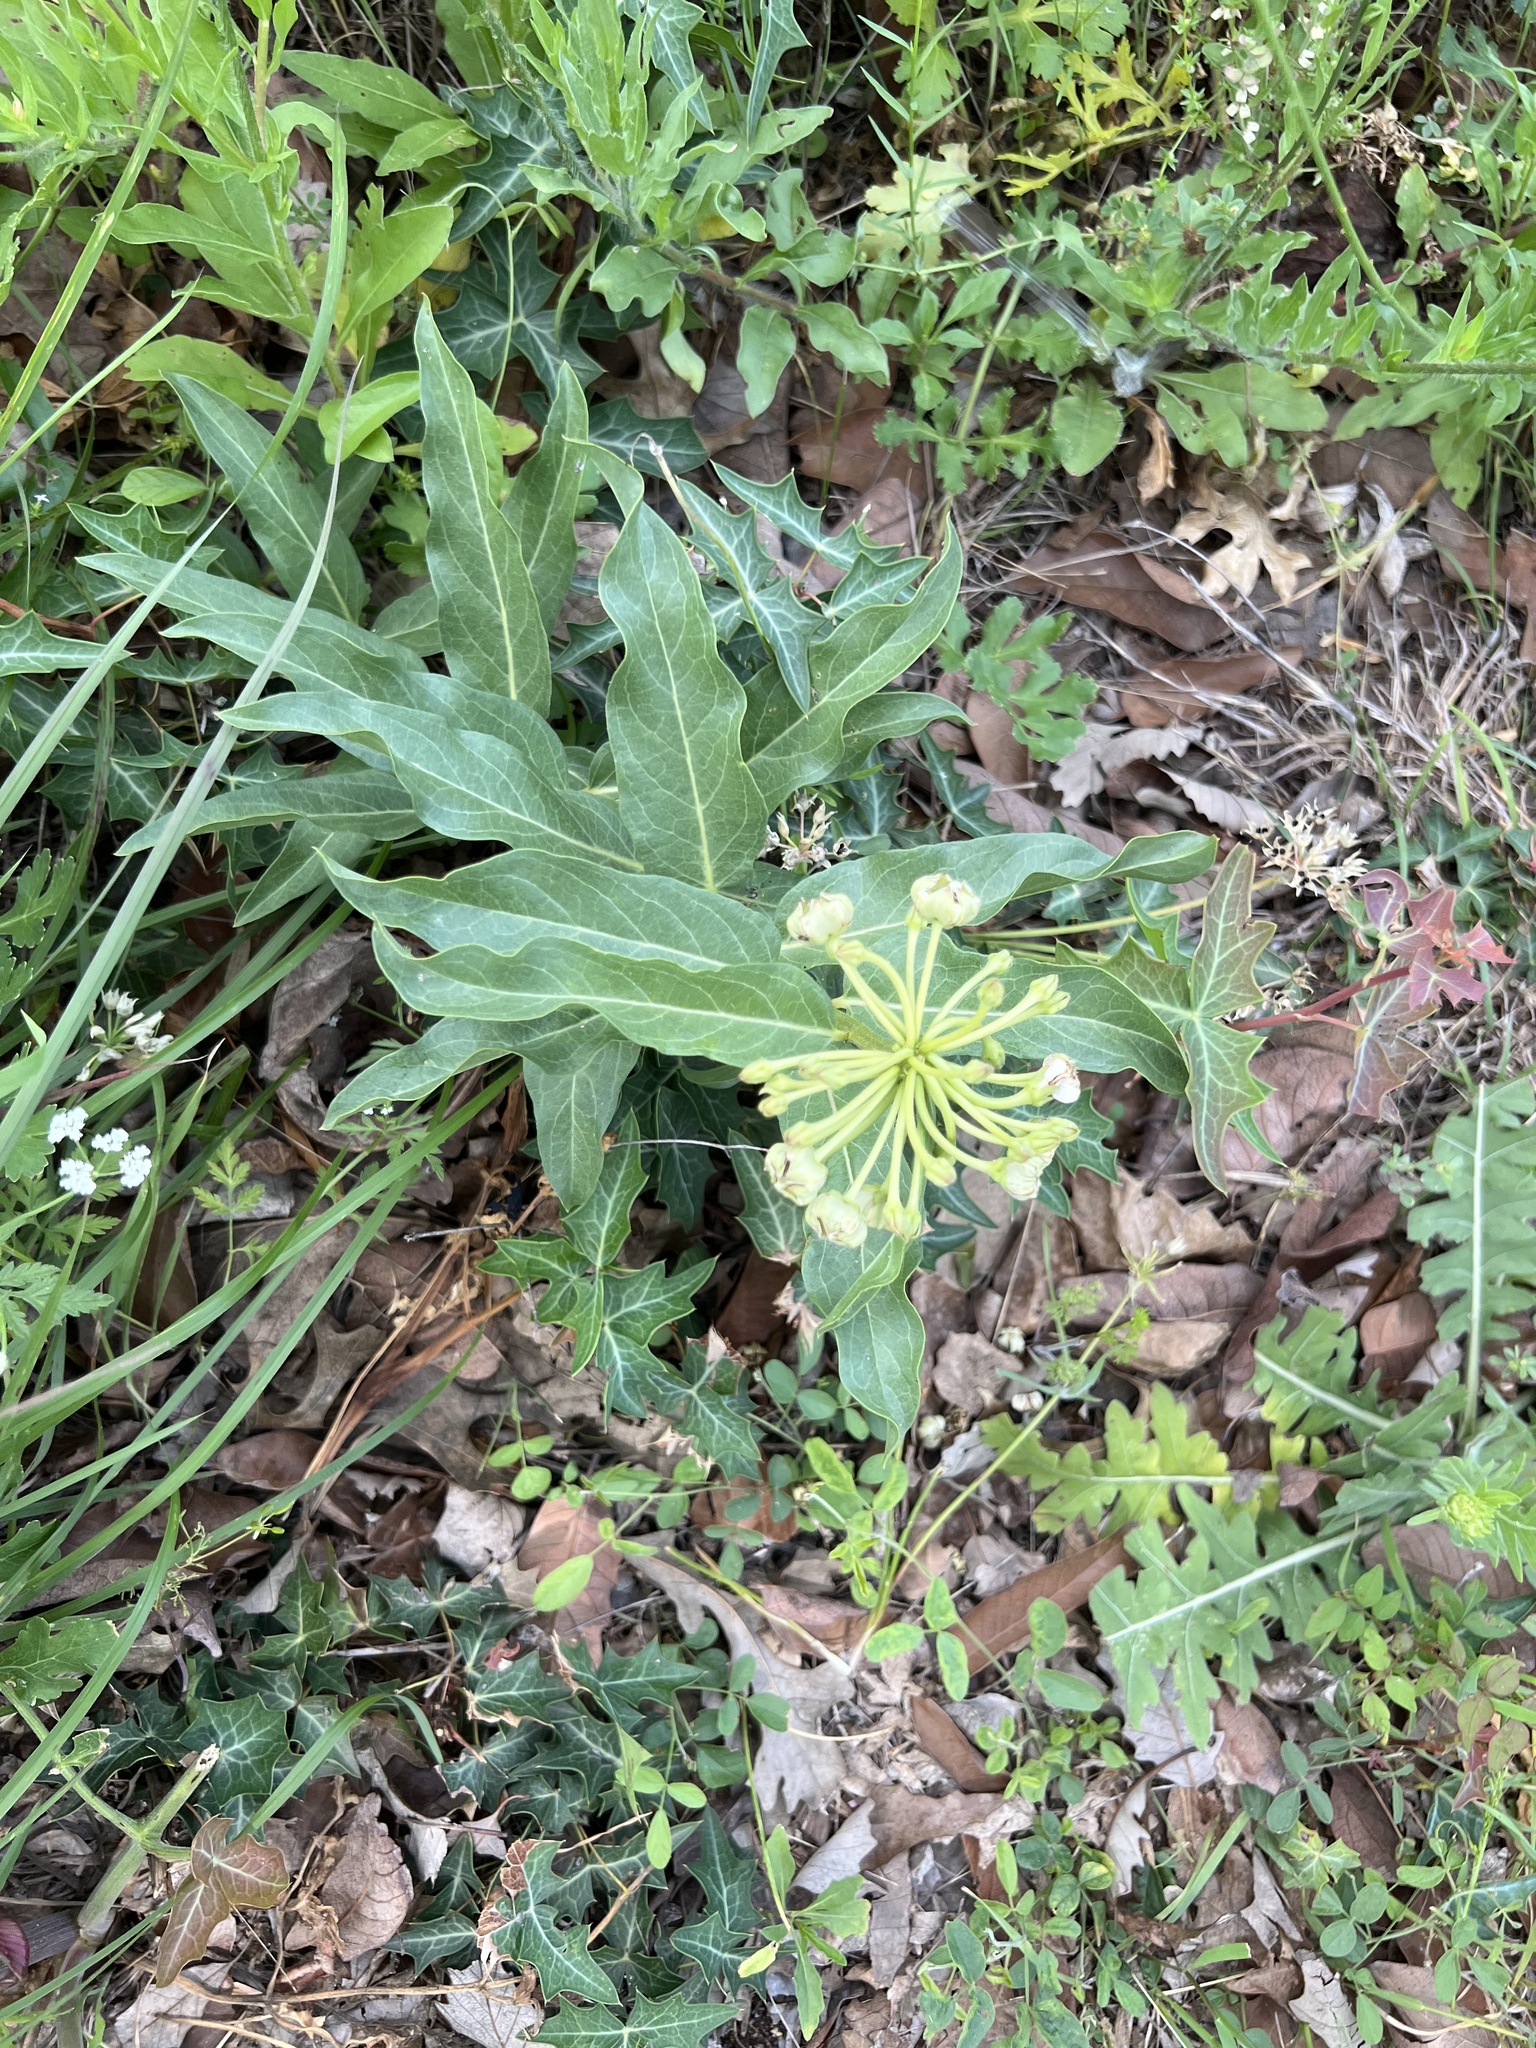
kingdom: Plantae
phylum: Tracheophyta
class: Magnoliopsida
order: Gentianales
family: Apocynaceae
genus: Asclepias
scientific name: Asclepias asperula
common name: Antelope horns
